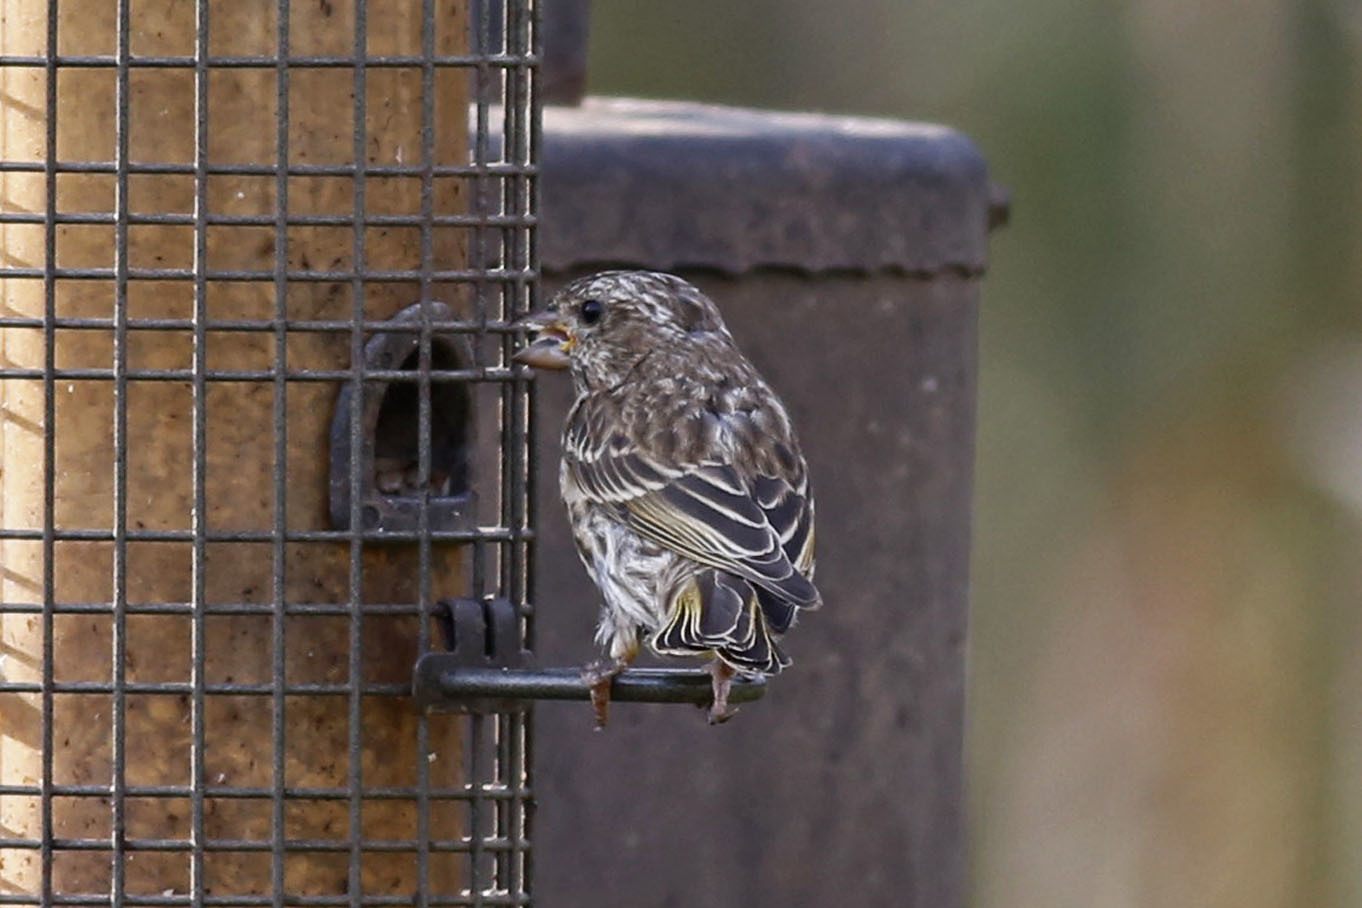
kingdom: Animalia
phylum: Chordata
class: Aves
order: Passeriformes
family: Fringillidae
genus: Haemorhous
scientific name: Haemorhous purpureus
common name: Purple finch
